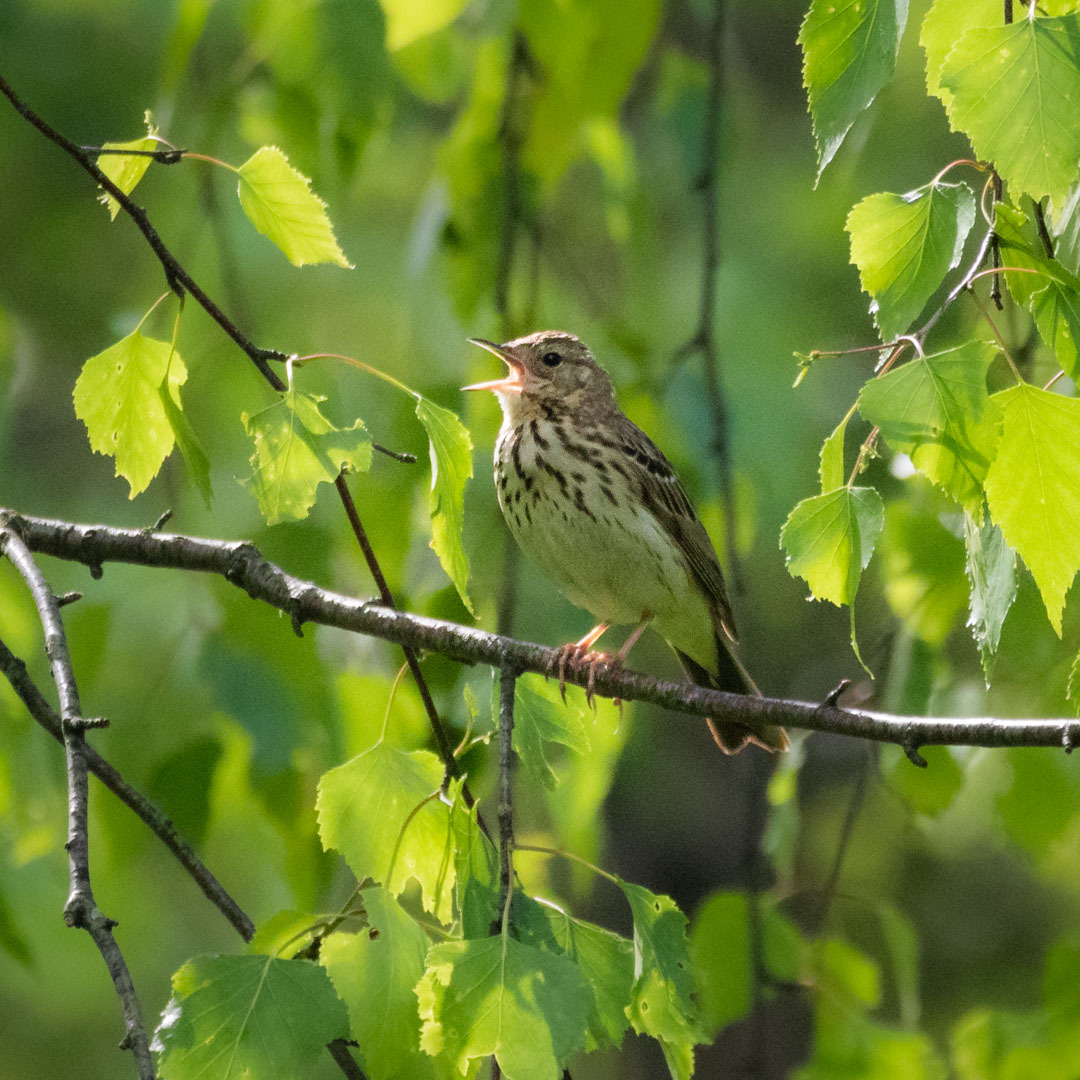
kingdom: Animalia
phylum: Chordata
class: Aves
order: Passeriformes
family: Motacillidae
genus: Anthus
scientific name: Anthus trivialis
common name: Tree pipit
